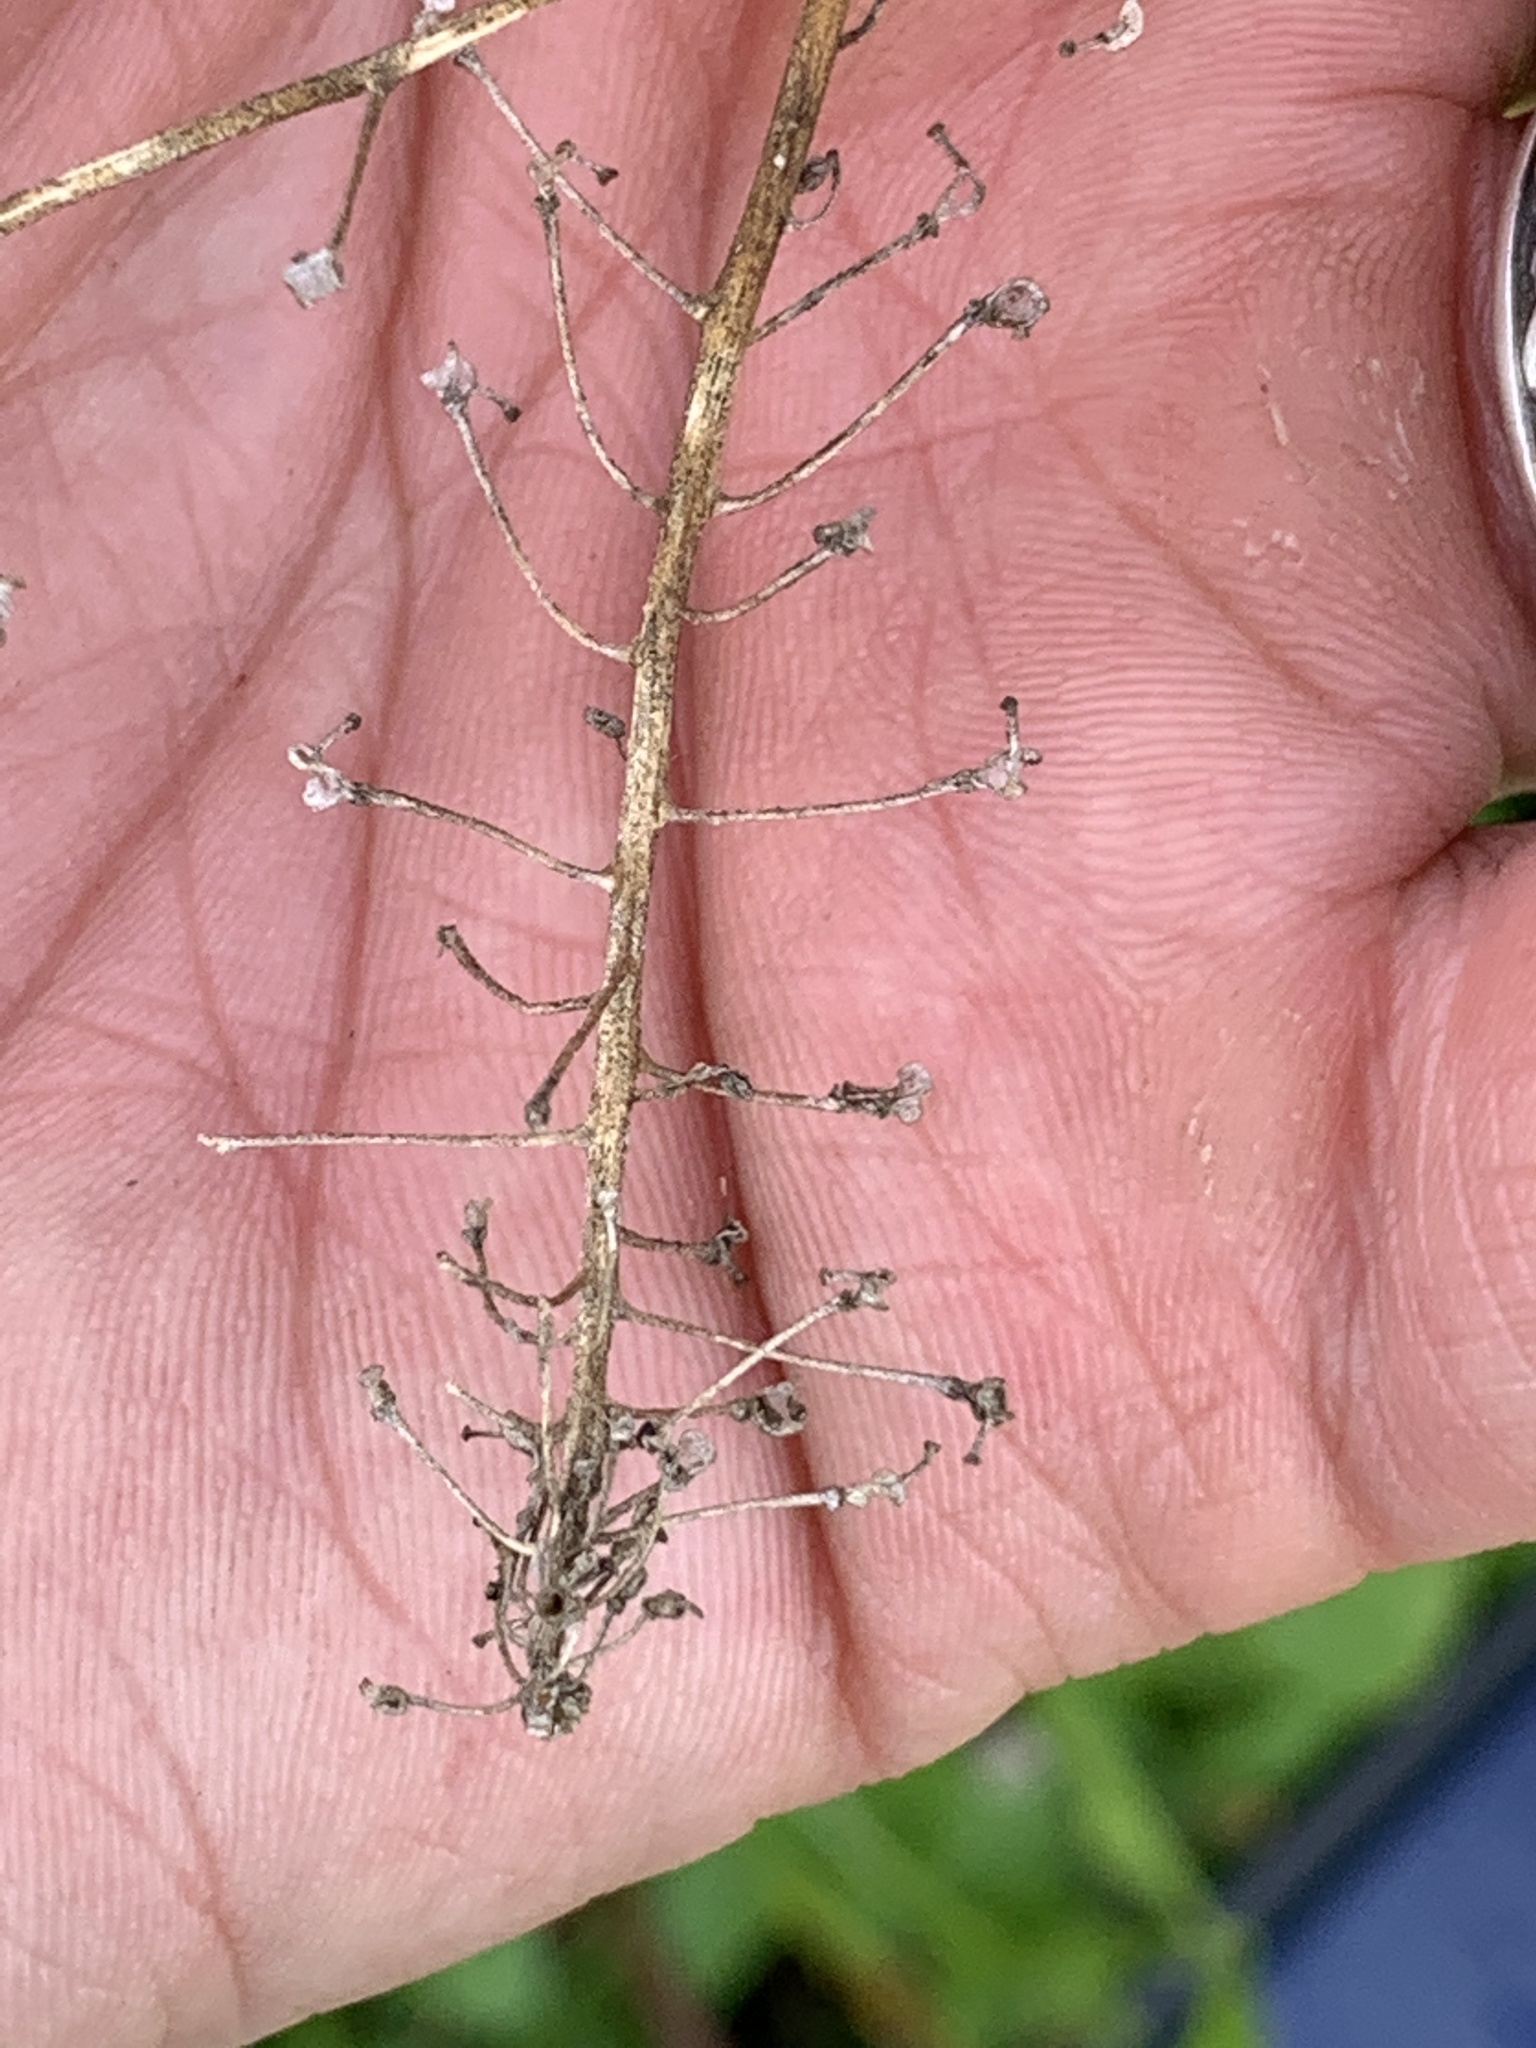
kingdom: Plantae
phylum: Tracheophyta
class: Magnoliopsida
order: Brassicales
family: Brassicaceae
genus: Rorippa
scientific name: Rorippa amphibia
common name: Great yellow-cress
